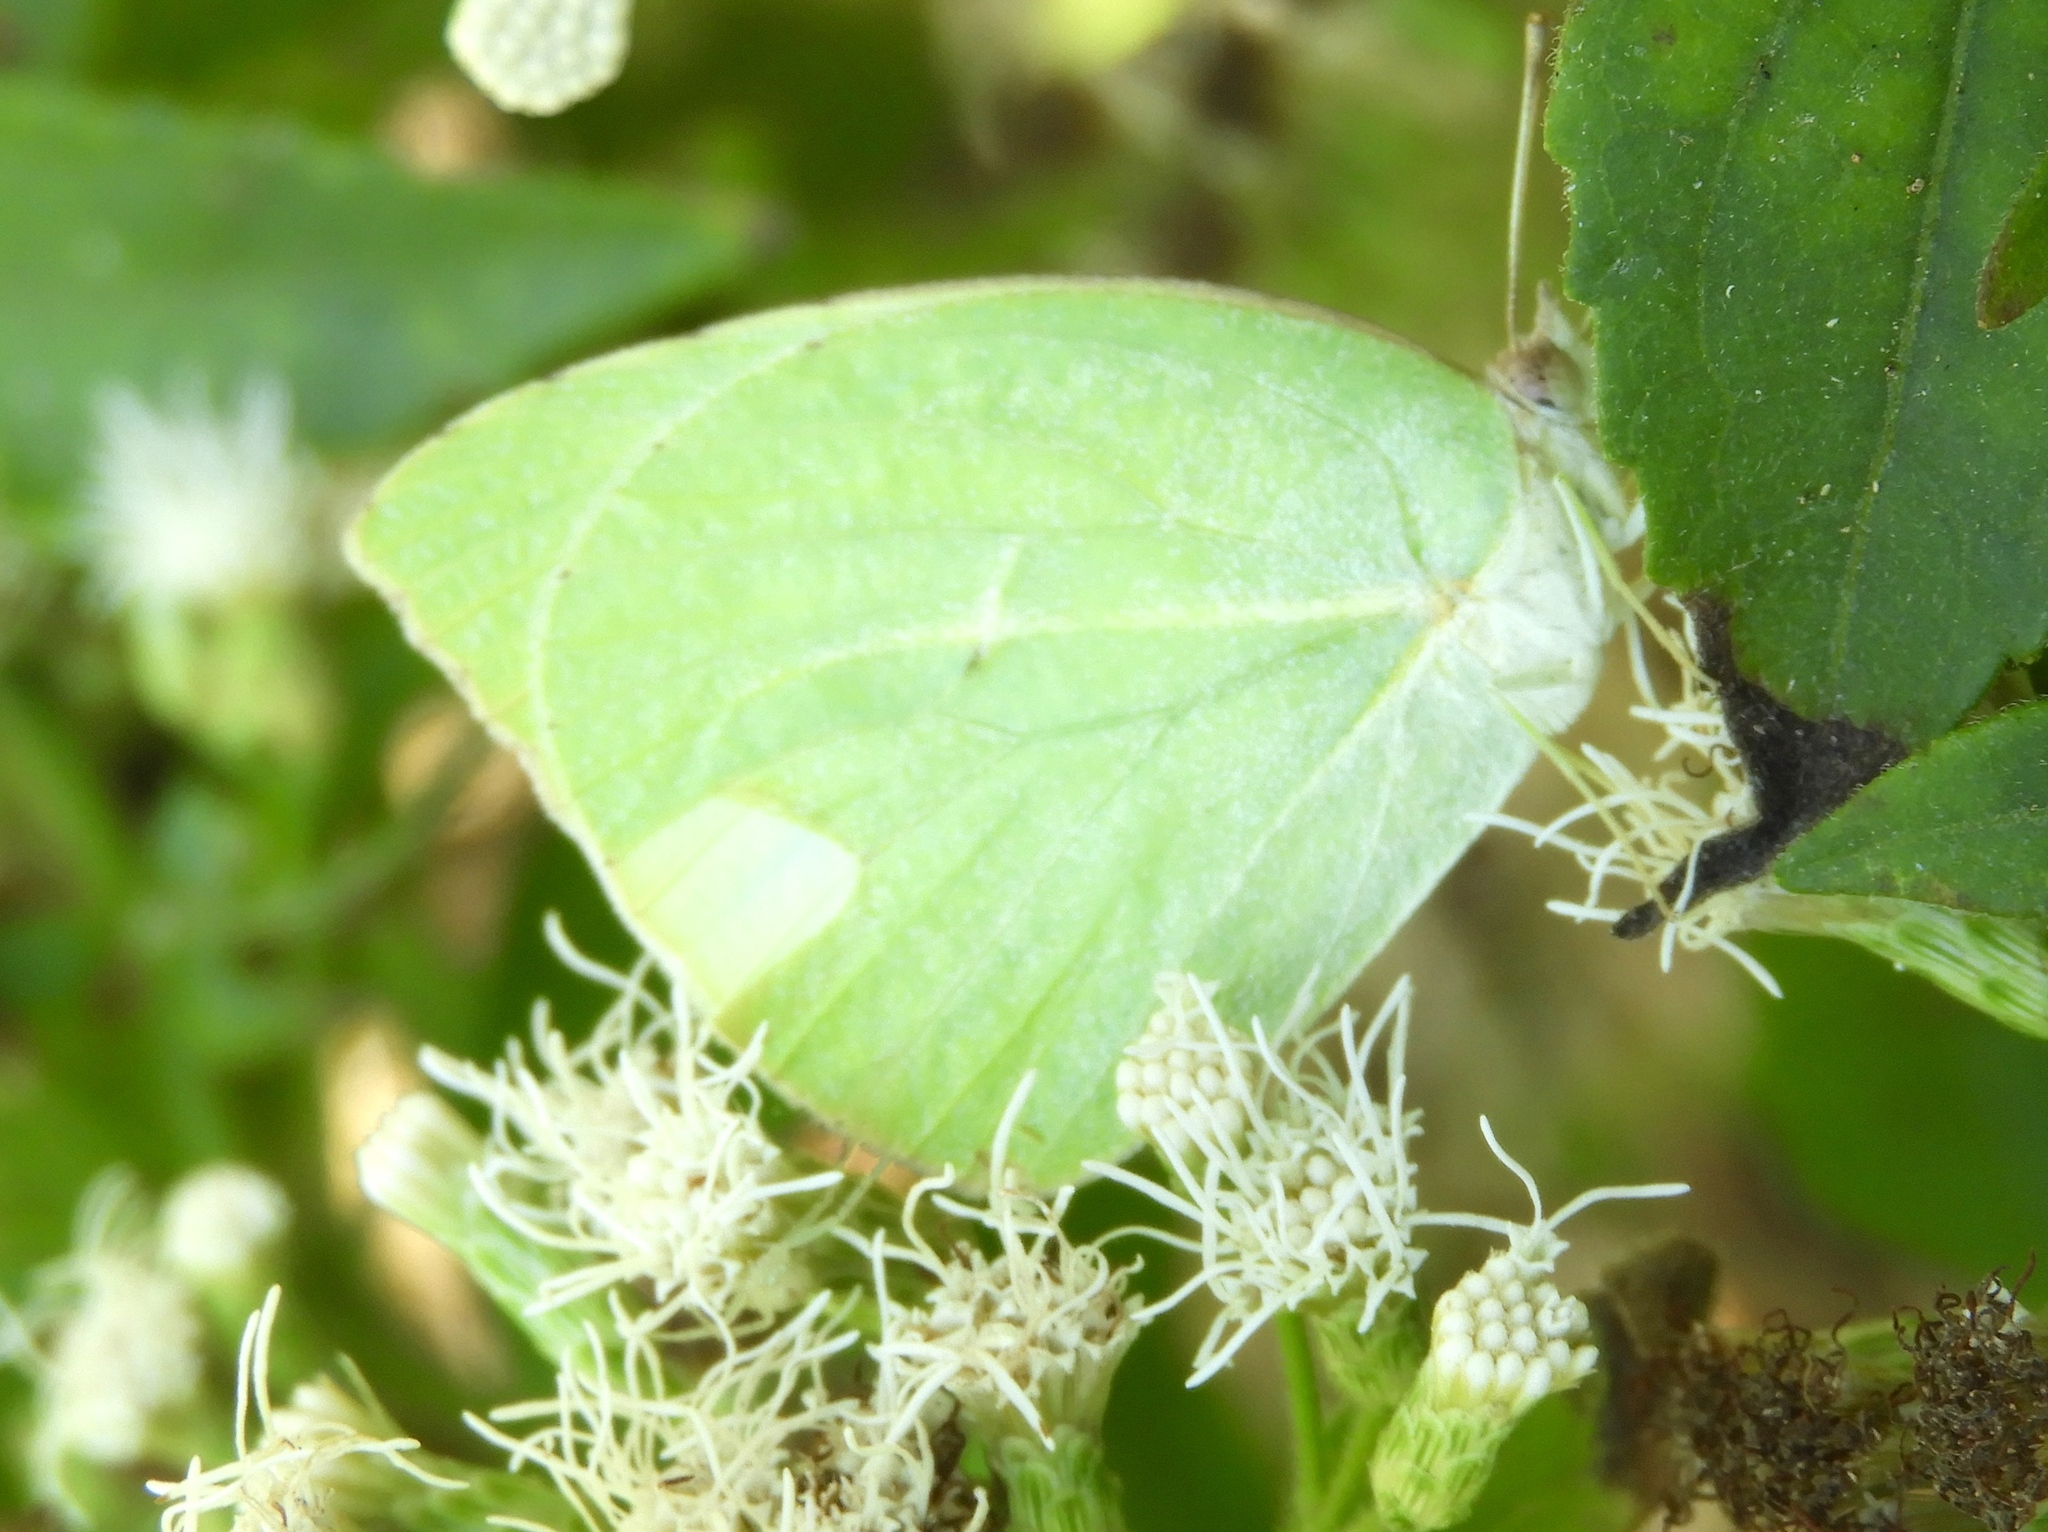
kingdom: Animalia
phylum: Arthropoda
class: Insecta
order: Lepidoptera
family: Pieridae
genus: Kricogonia
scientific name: Kricogonia lyside
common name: Guayacan sulphur,
